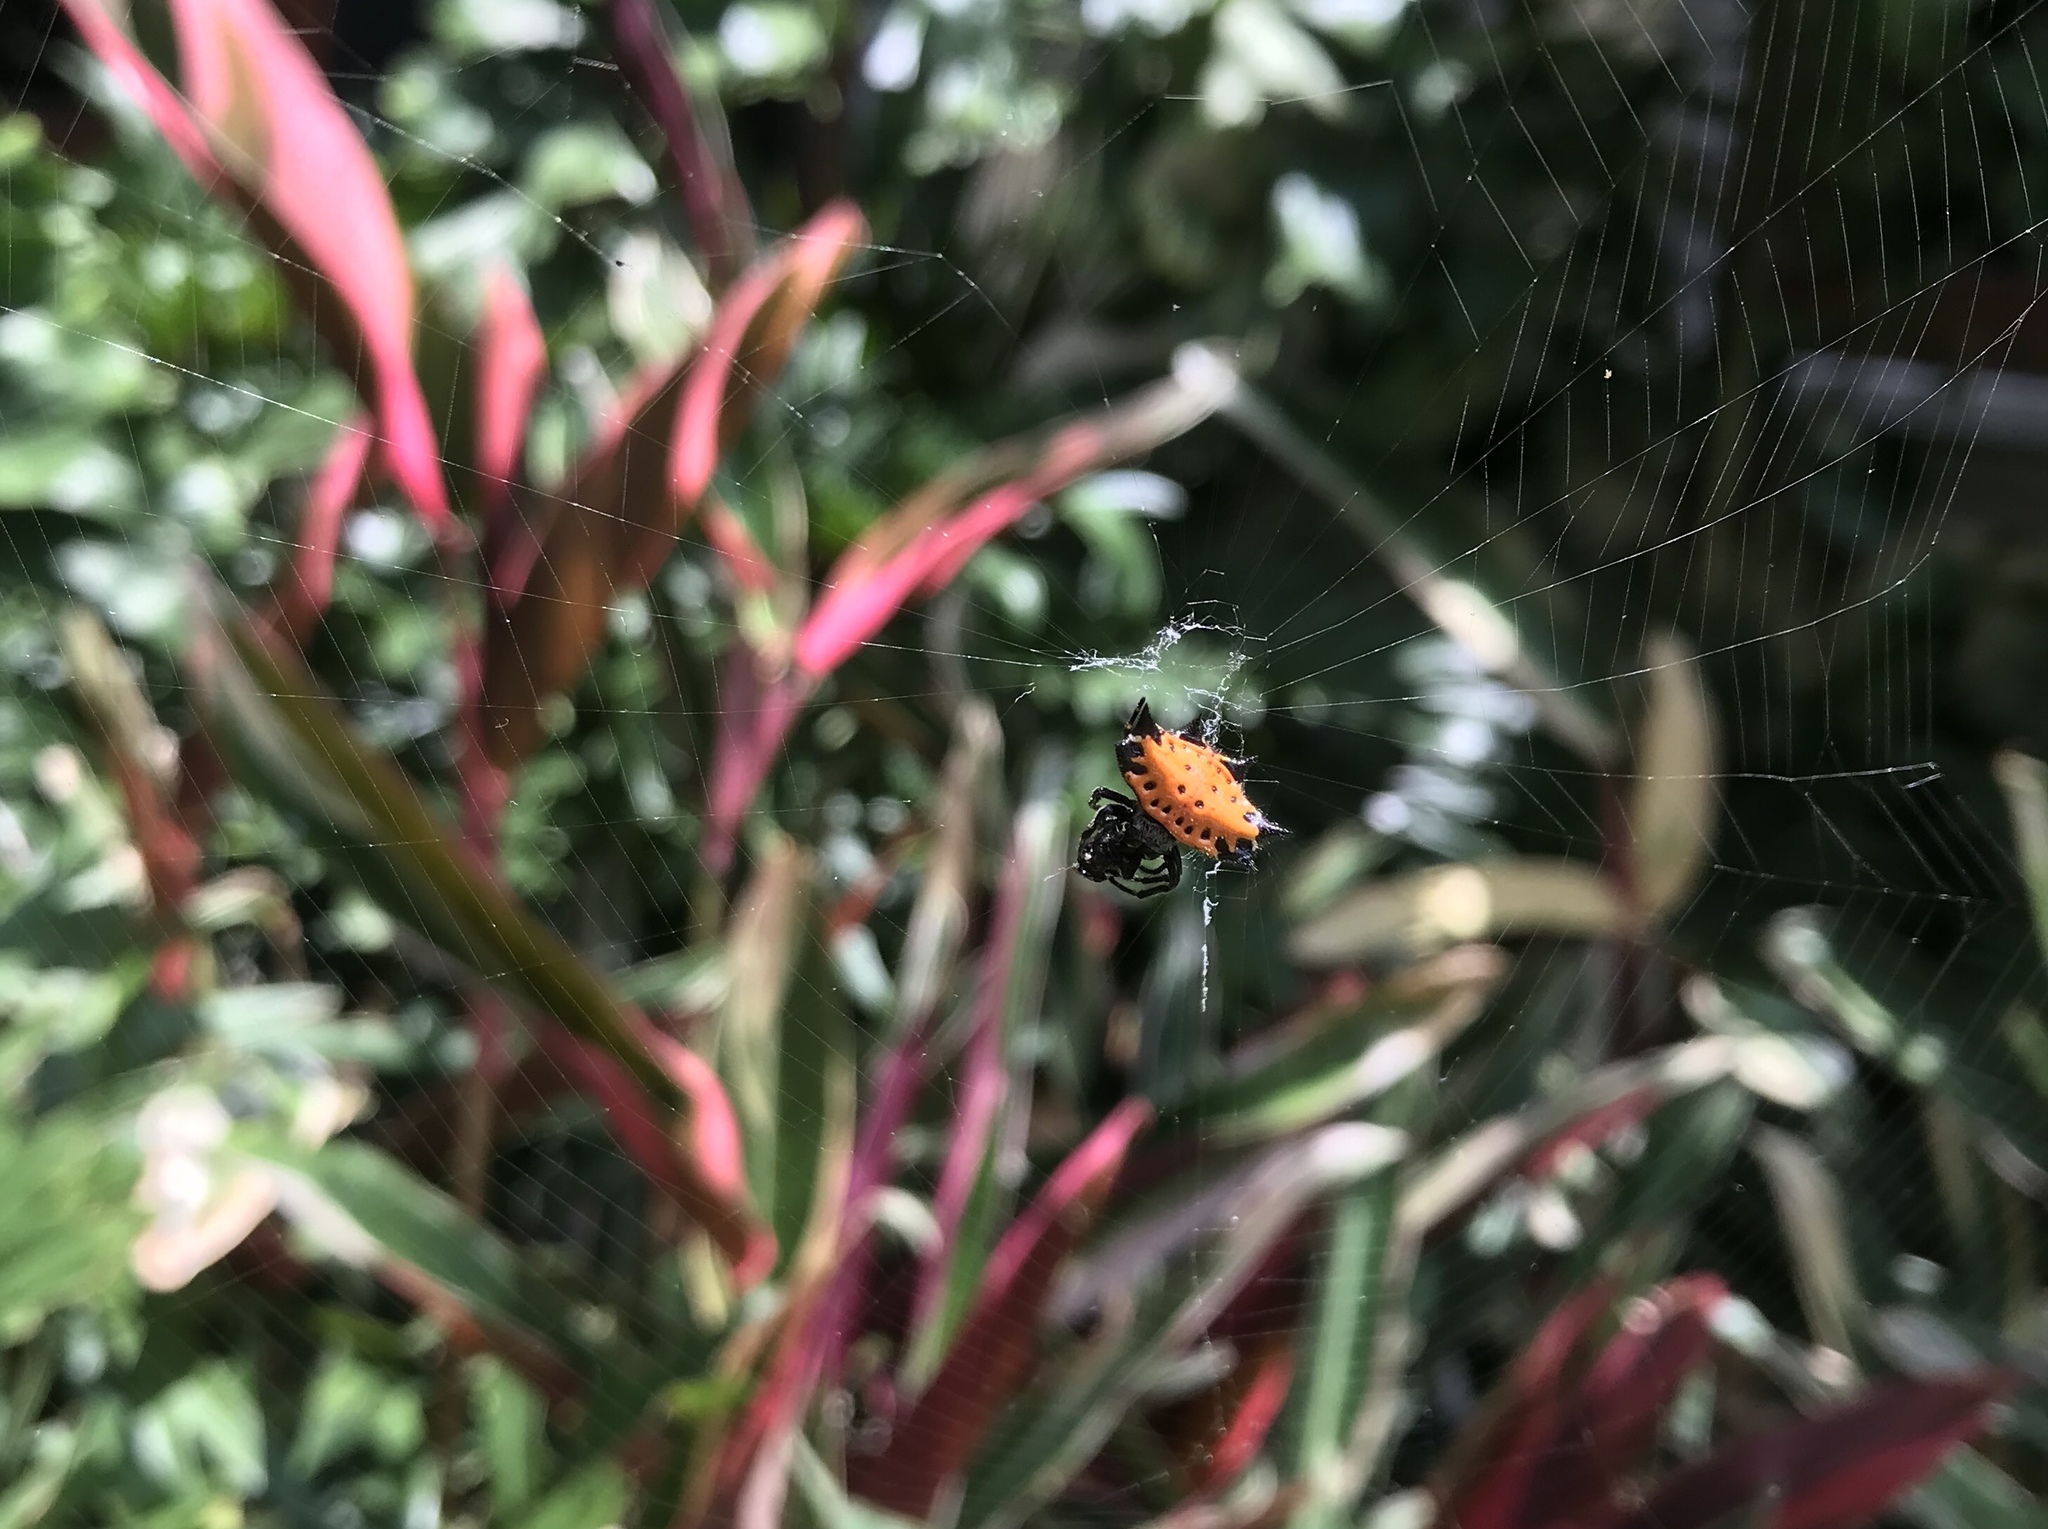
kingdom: Animalia
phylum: Arthropoda
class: Arachnida
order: Araneae
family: Araneidae
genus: Gasteracantha
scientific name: Gasteracantha cancriformis
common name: Orb weavers
